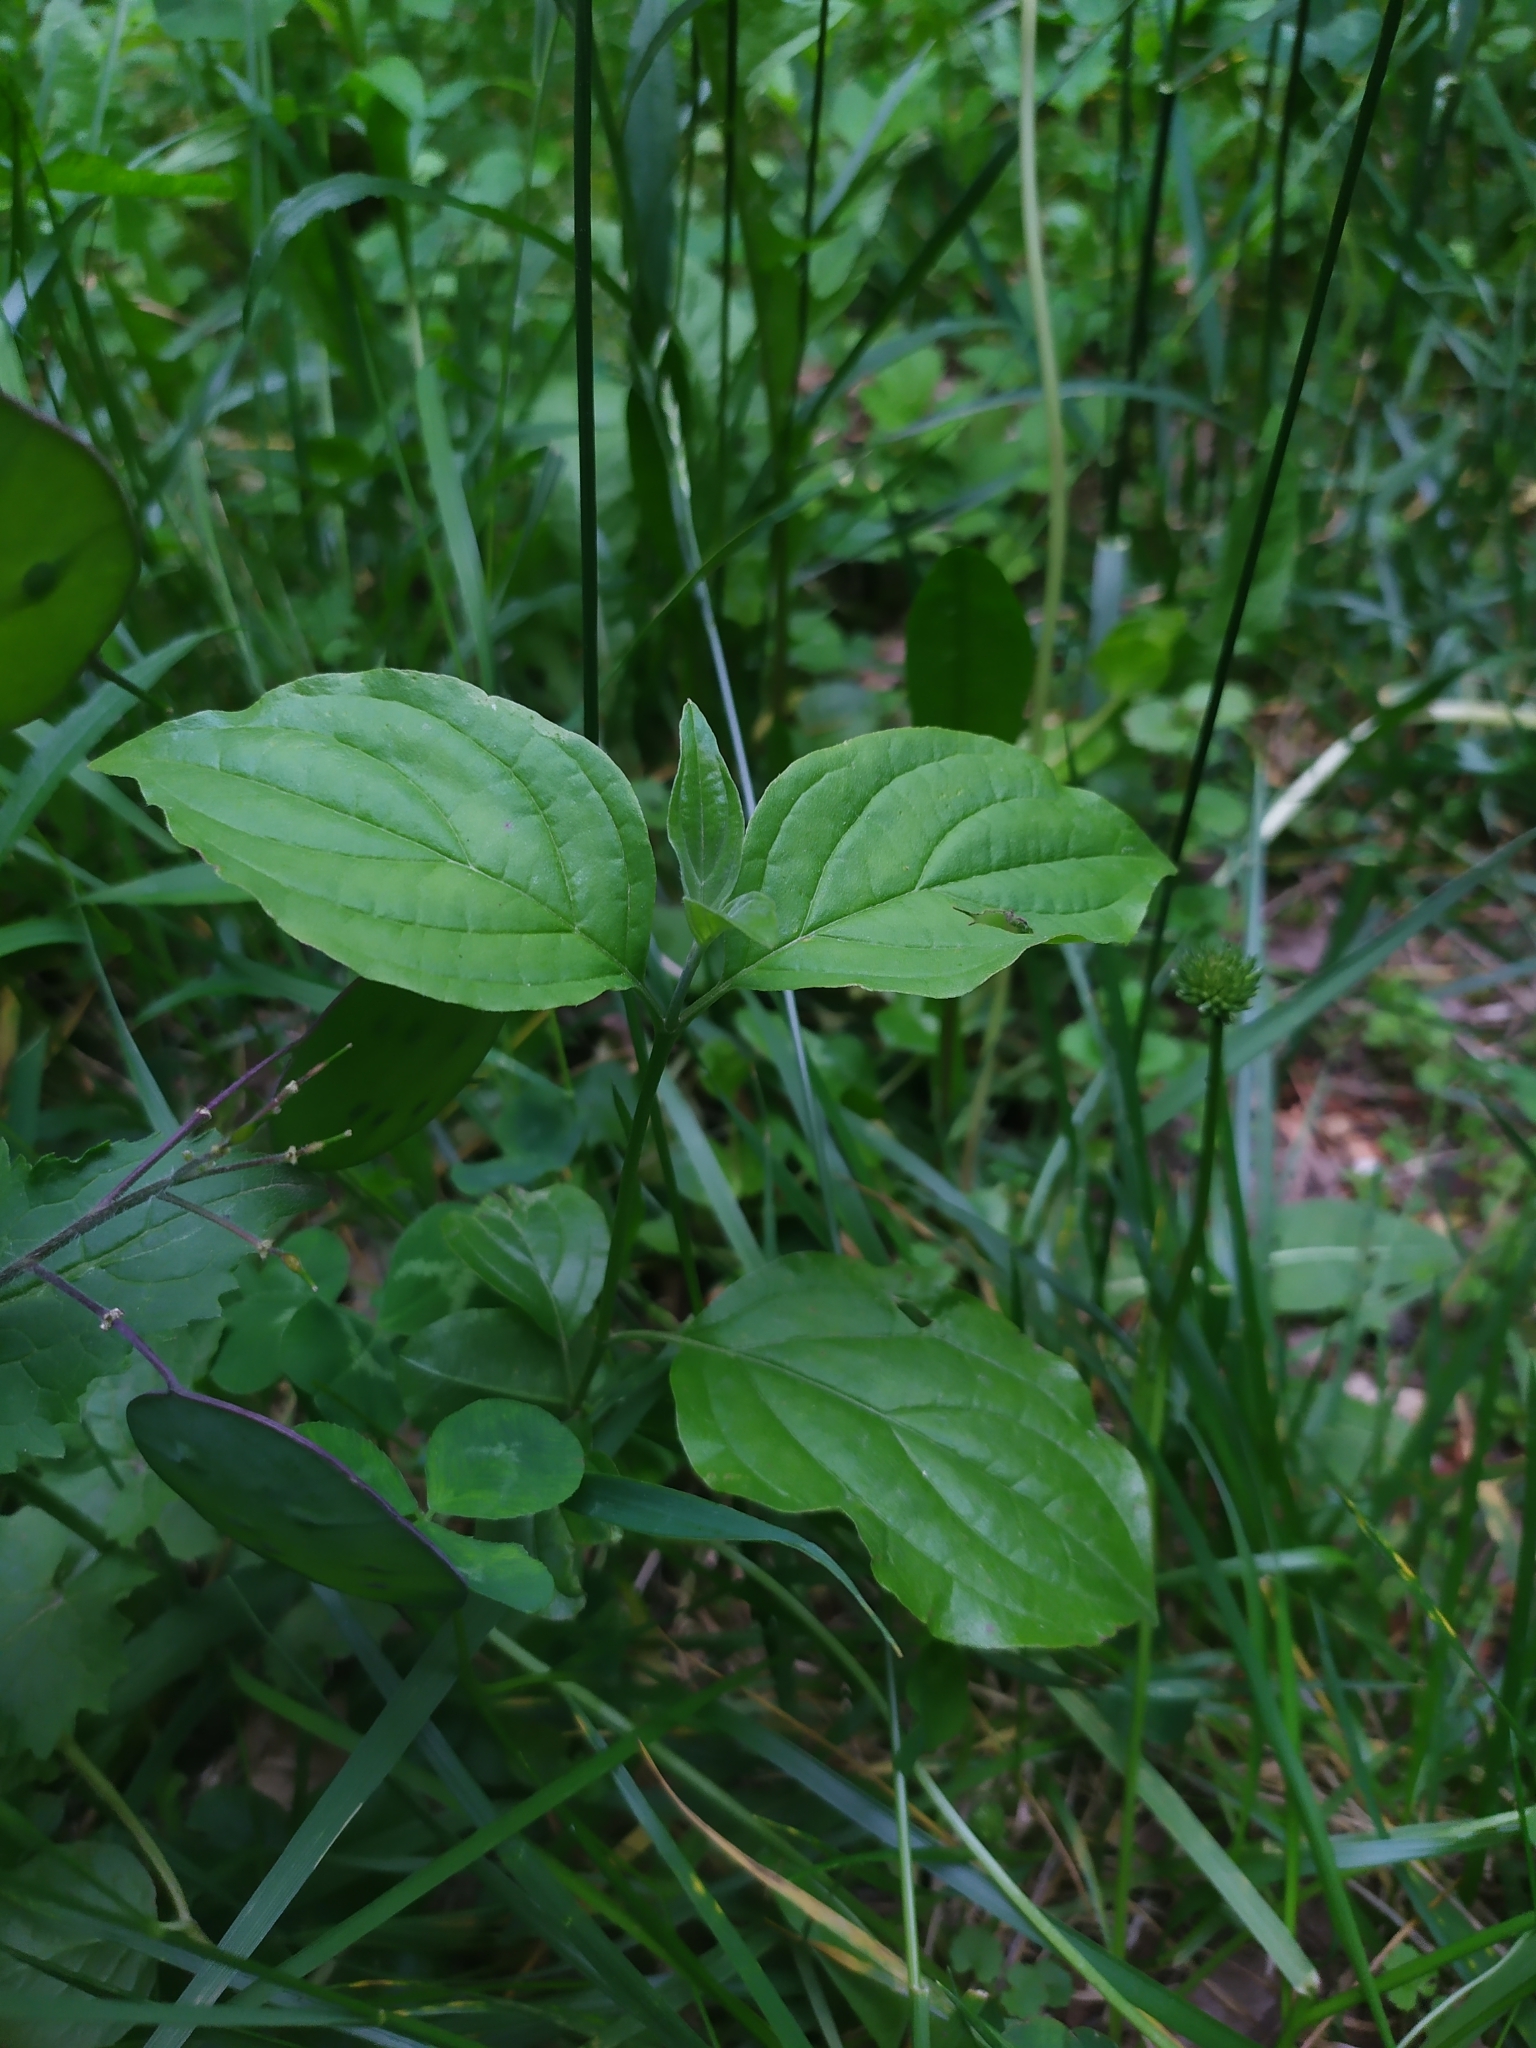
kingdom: Plantae
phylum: Tracheophyta
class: Magnoliopsida
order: Cornales
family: Cornaceae
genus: Cornus
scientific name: Cornus sanguinea
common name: Dogwood
